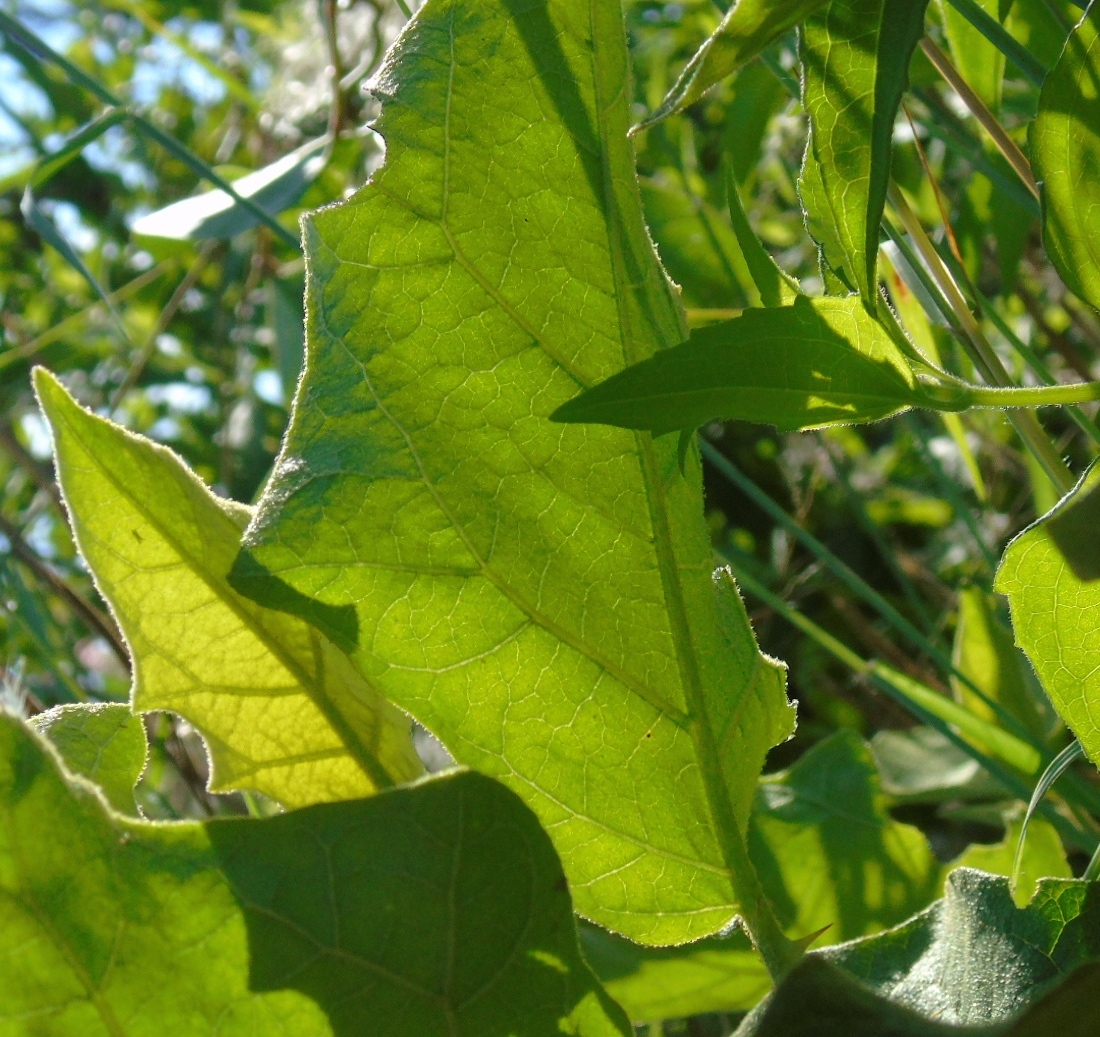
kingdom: Plantae
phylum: Tracheophyta
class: Magnoliopsida
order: Solanales
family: Solanaceae
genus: Solanum
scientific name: Solanum ferrugineum
